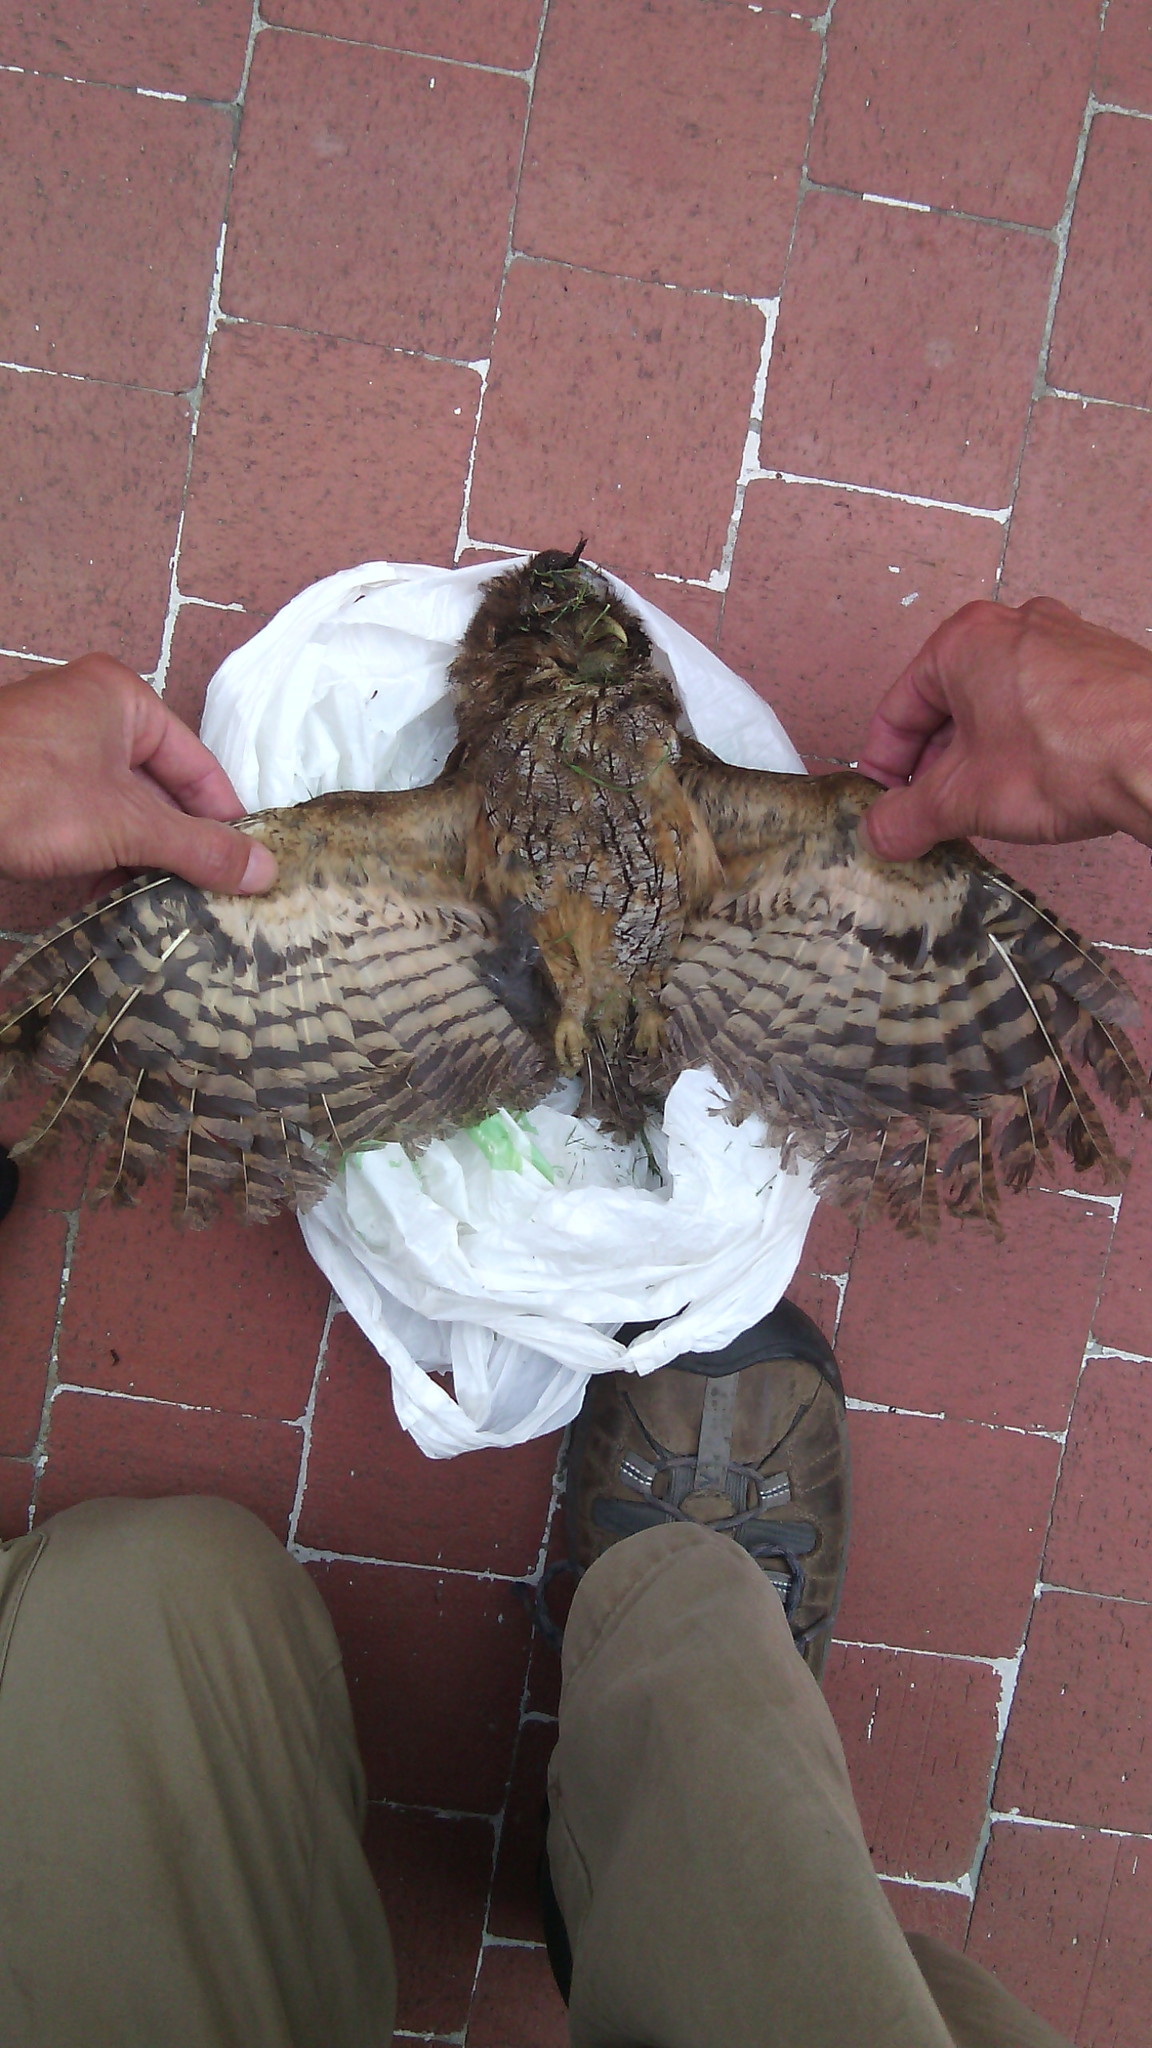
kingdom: Animalia
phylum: Chordata
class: Aves
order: Strigiformes
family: Strigidae
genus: Megascops
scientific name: Megascops choliba
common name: Tropical screech-owl
